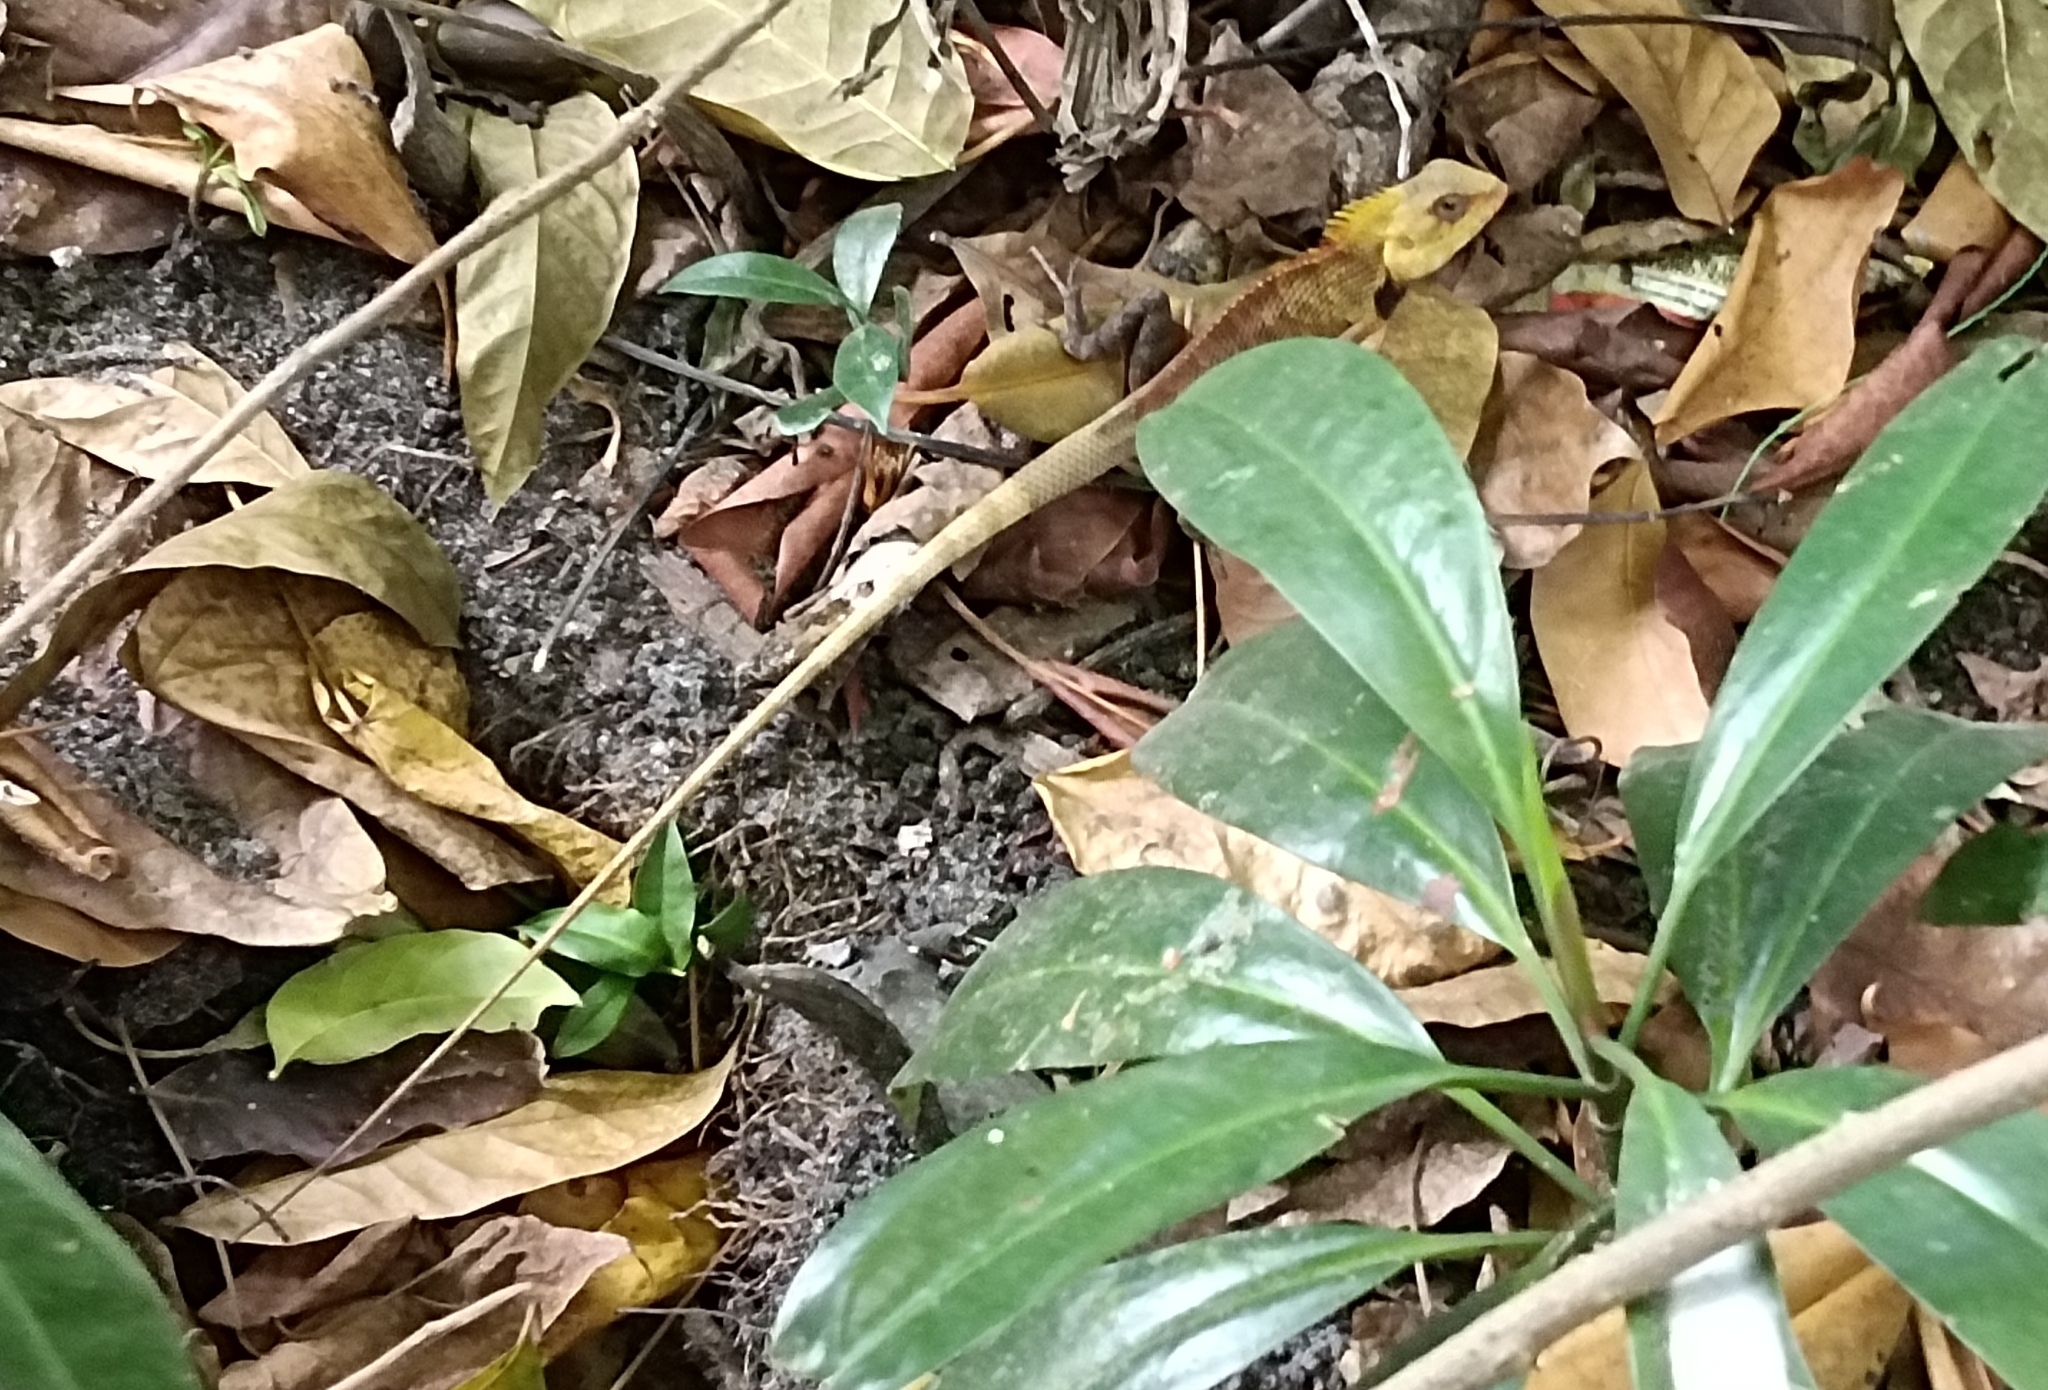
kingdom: Animalia
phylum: Chordata
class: Squamata
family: Agamidae
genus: Calotes
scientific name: Calotes versicolor
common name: Oriental garden lizard
